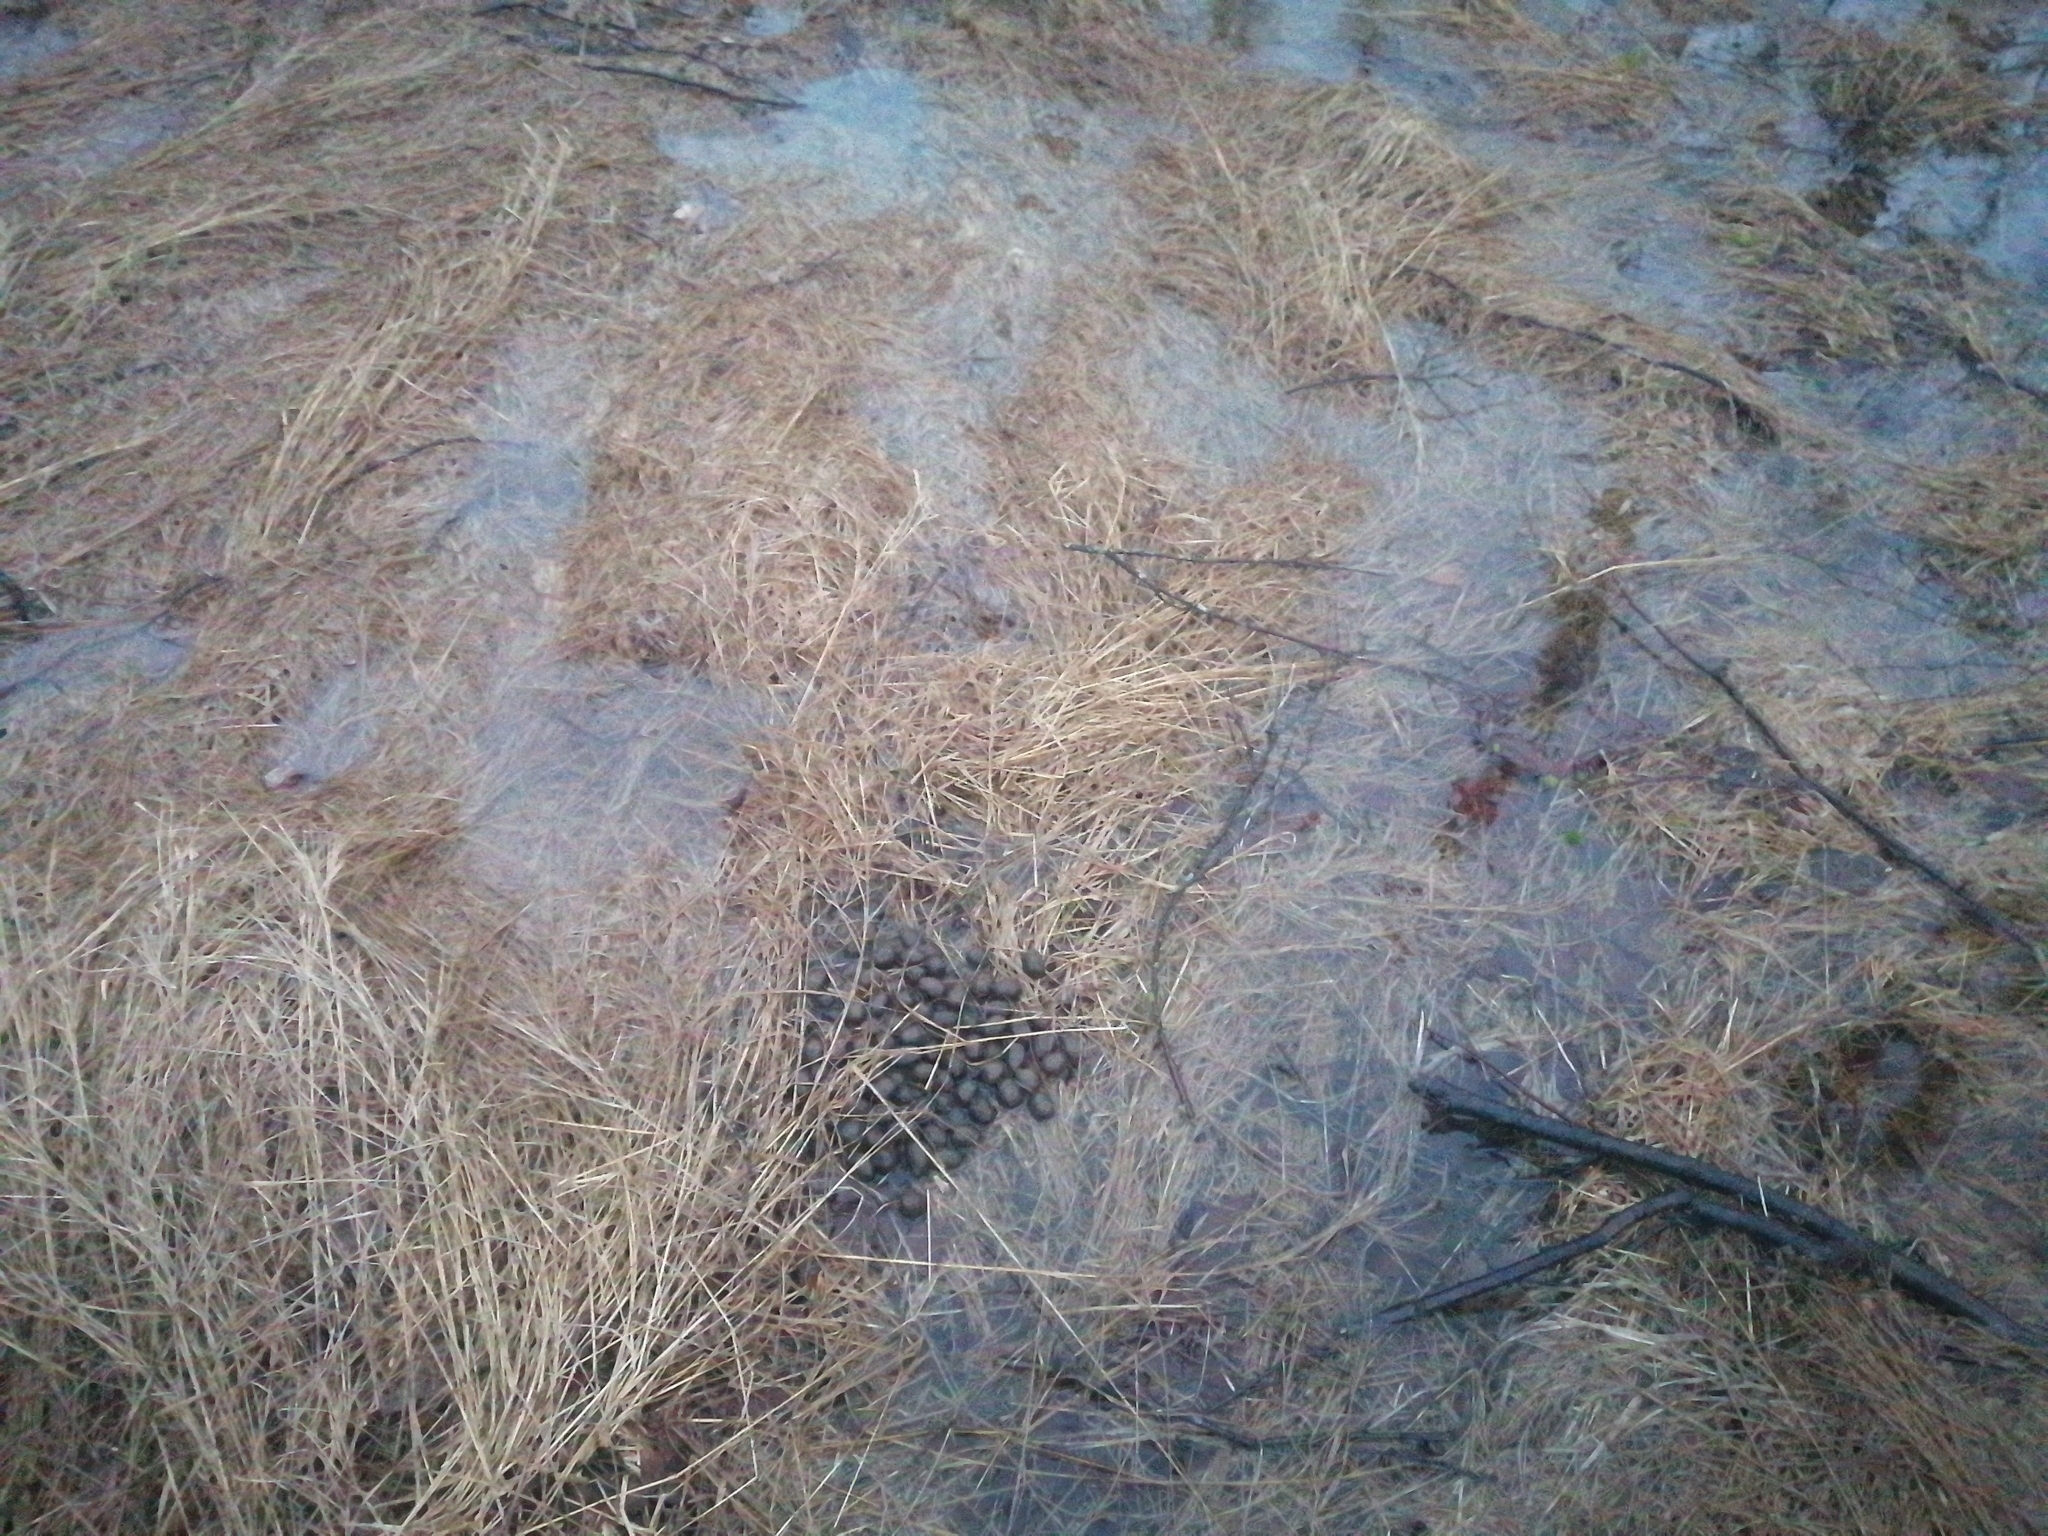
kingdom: Animalia
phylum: Chordata
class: Mammalia
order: Artiodactyla
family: Cervidae
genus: Alces
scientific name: Alces alces
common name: Moose
